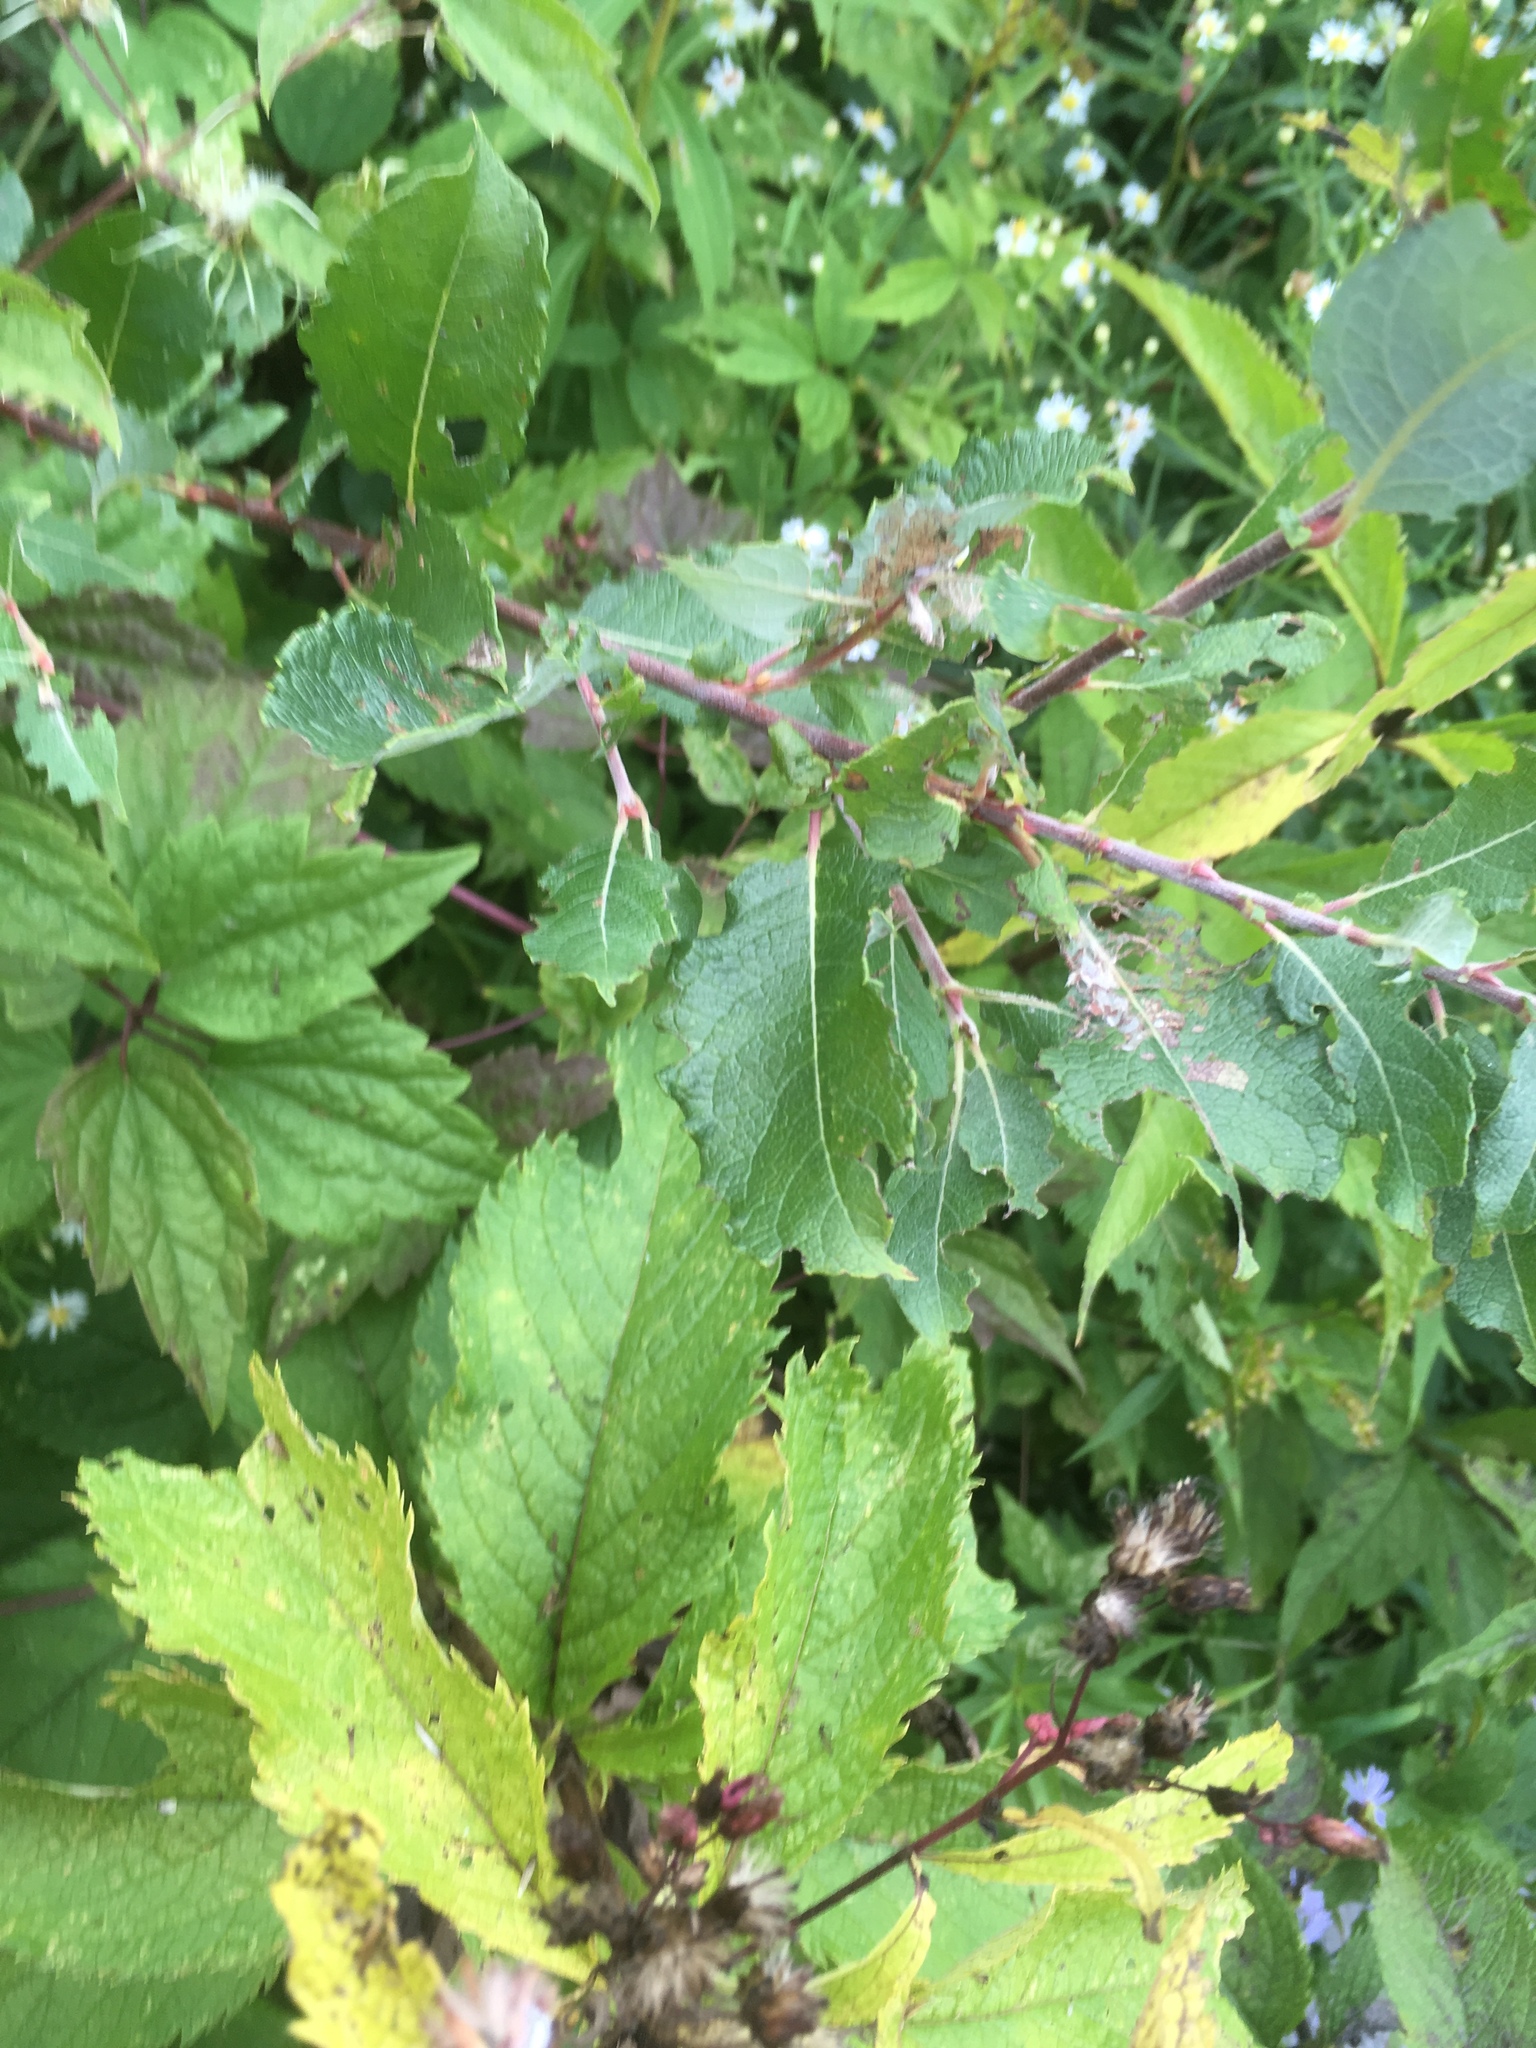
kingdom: Plantae
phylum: Tracheophyta
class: Magnoliopsida
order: Malpighiales
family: Salicaceae
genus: Salix
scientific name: Salix bebbiana
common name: Bebb's willow
